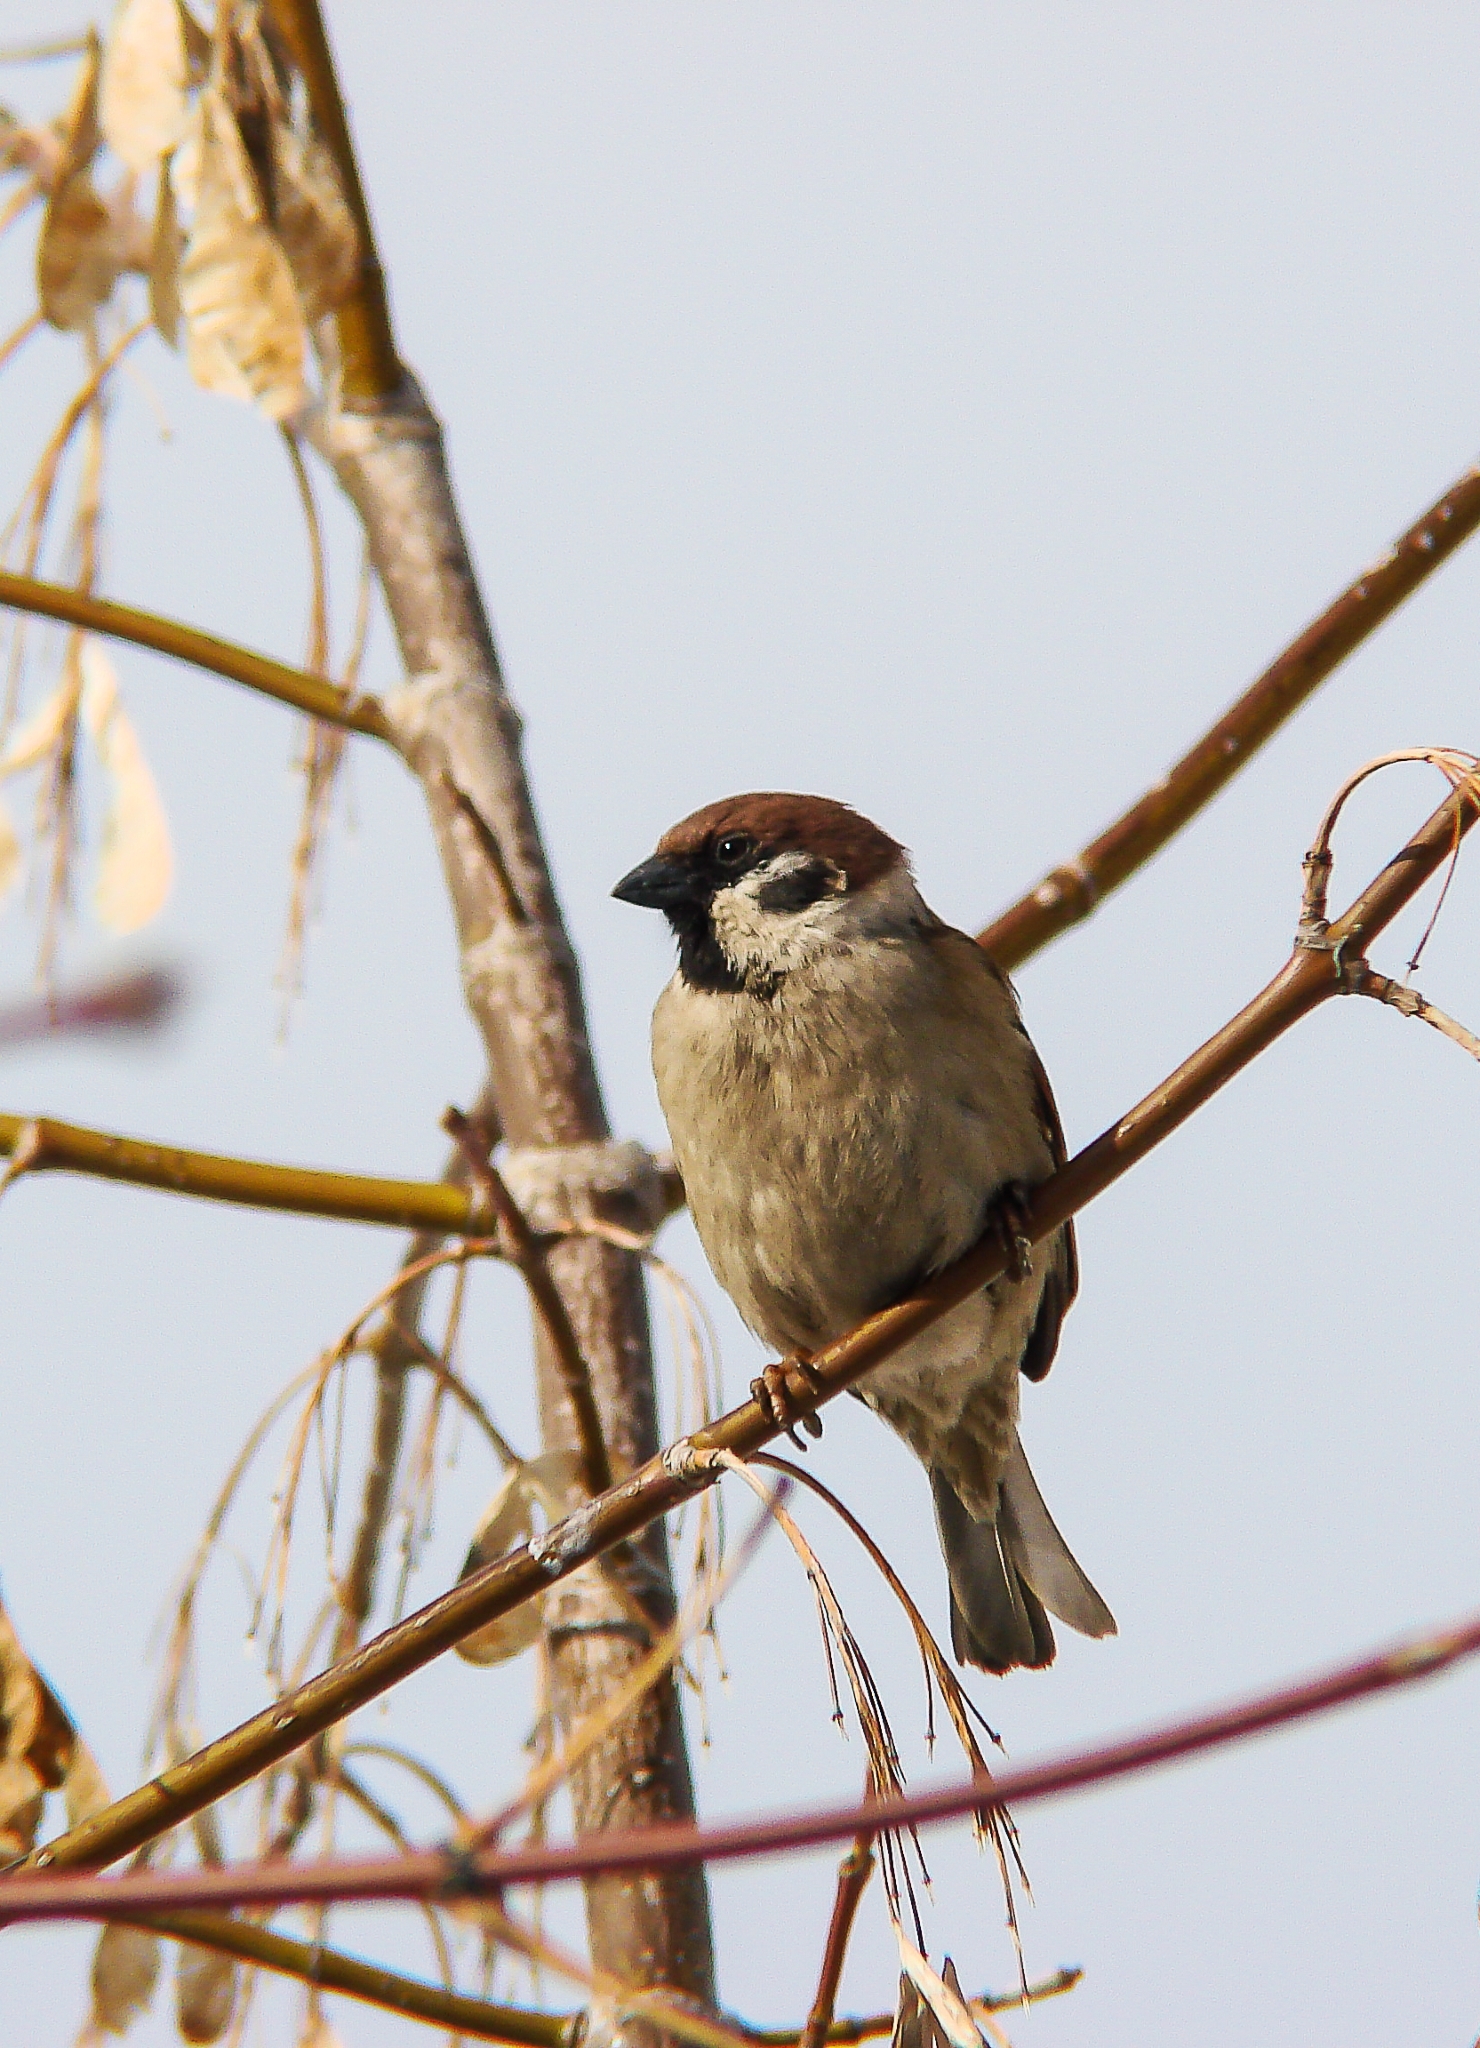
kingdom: Animalia
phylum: Chordata
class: Aves
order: Passeriformes
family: Passeridae
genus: Passer
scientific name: Passer montanus
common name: Eurasian tree sparrow
